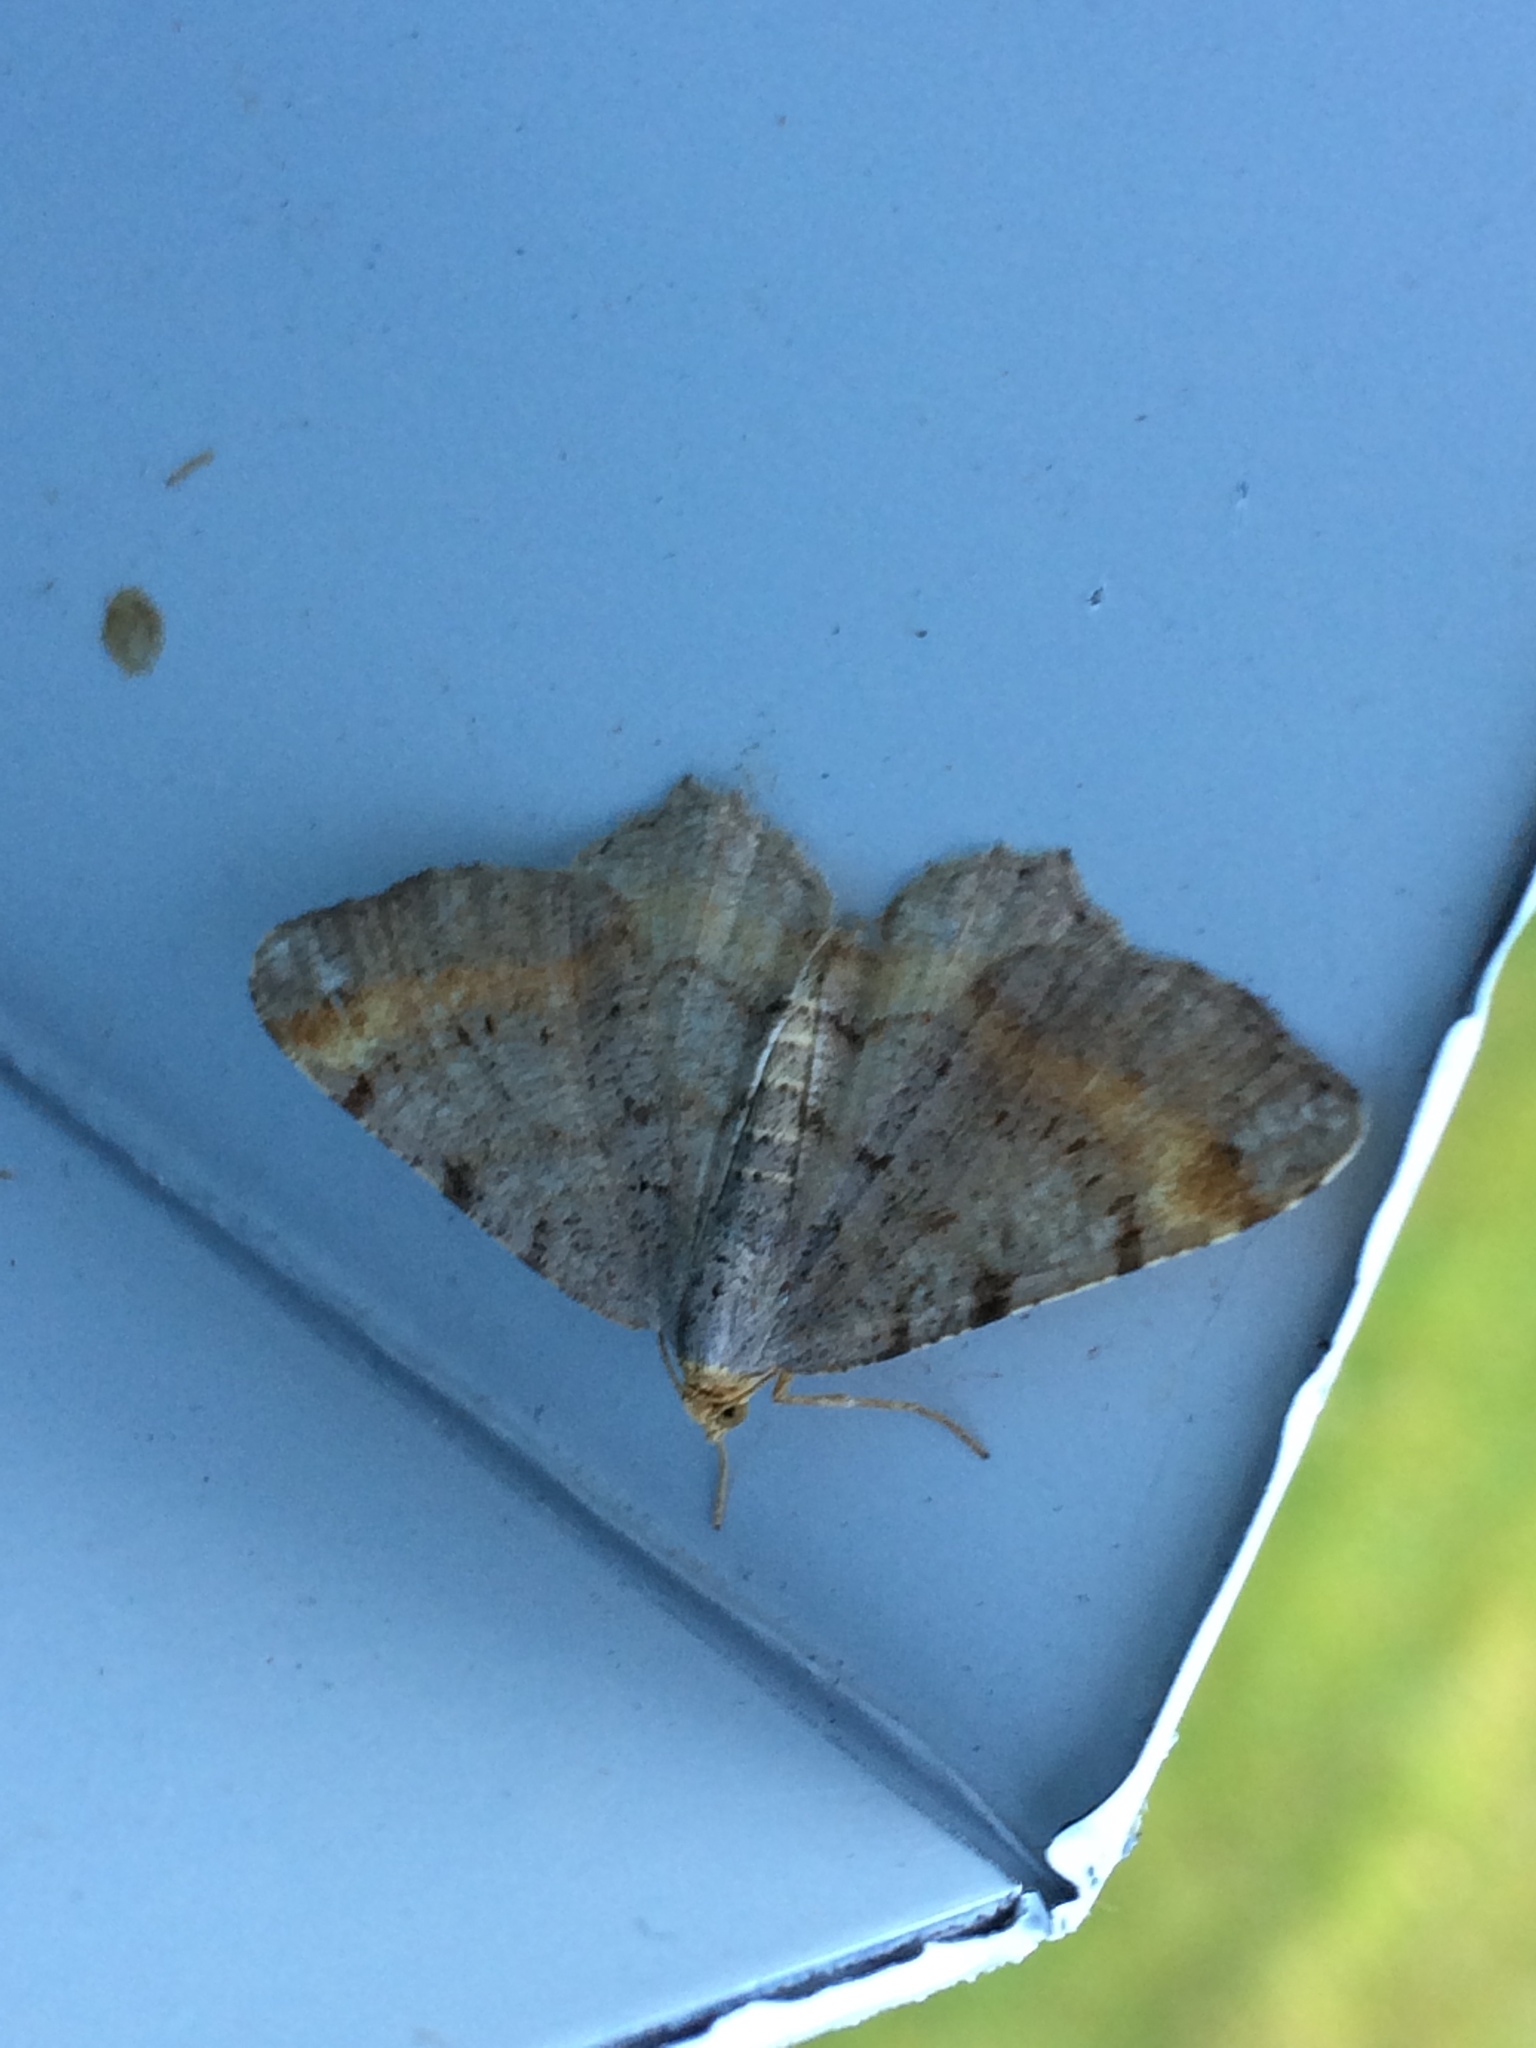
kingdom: Animalia
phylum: Arthropoda
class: Insecta
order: Lepidoptera
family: Geometridae
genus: Macaria
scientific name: Macaria liturata
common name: Tawny-barred angle
